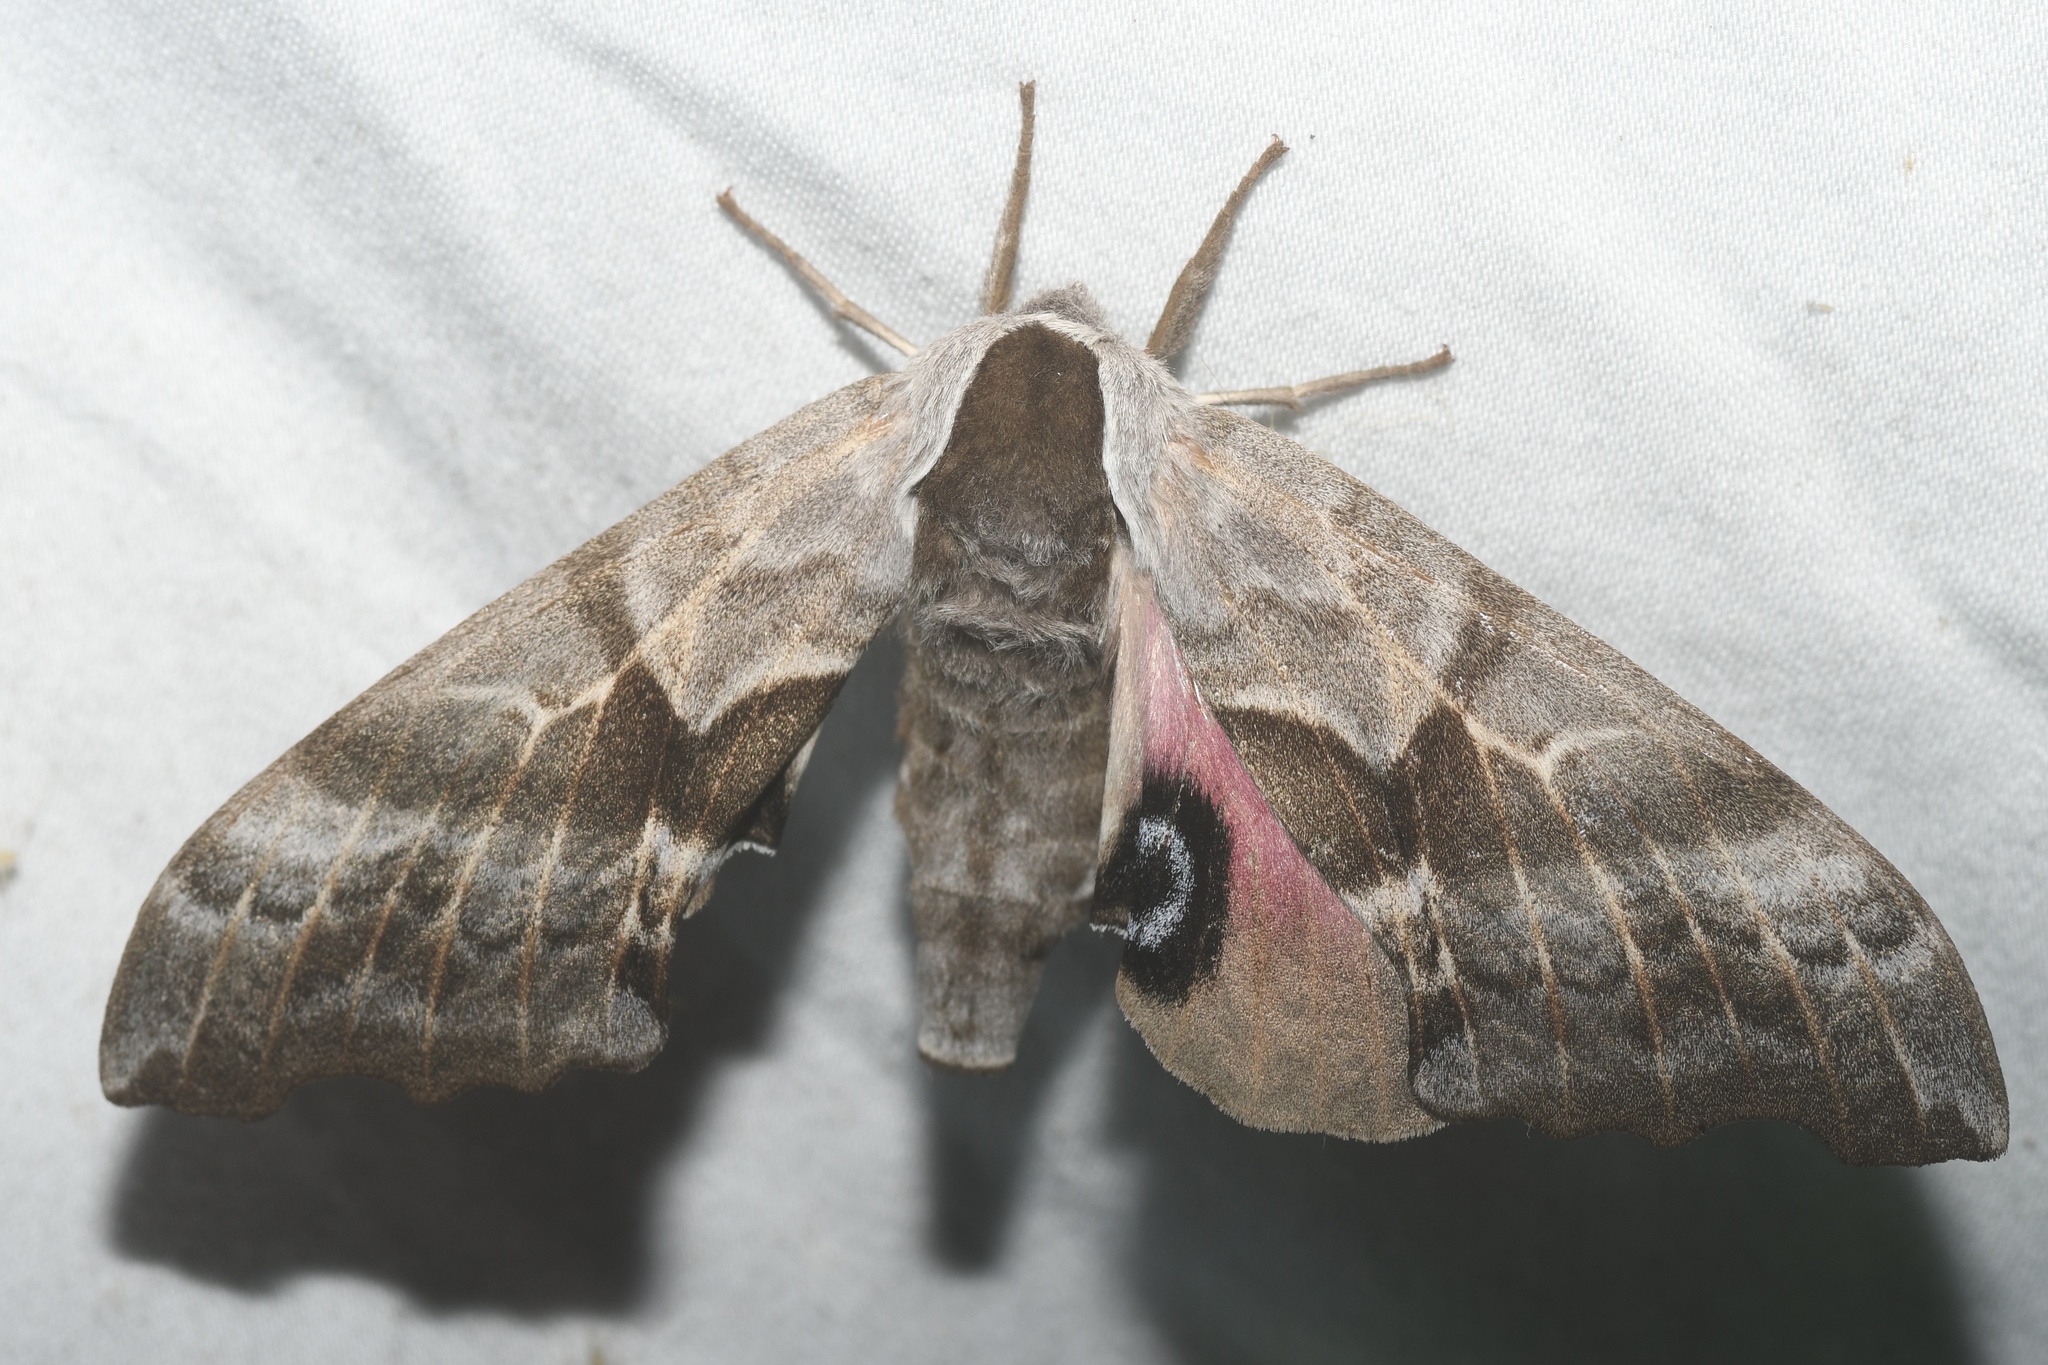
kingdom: Animalia
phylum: Arthropoda
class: Insecta
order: Lepidoptera
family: Sphingidae
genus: Smerinthus
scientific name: Smerinthus cerisyi
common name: Cerisy's sphinx moth
